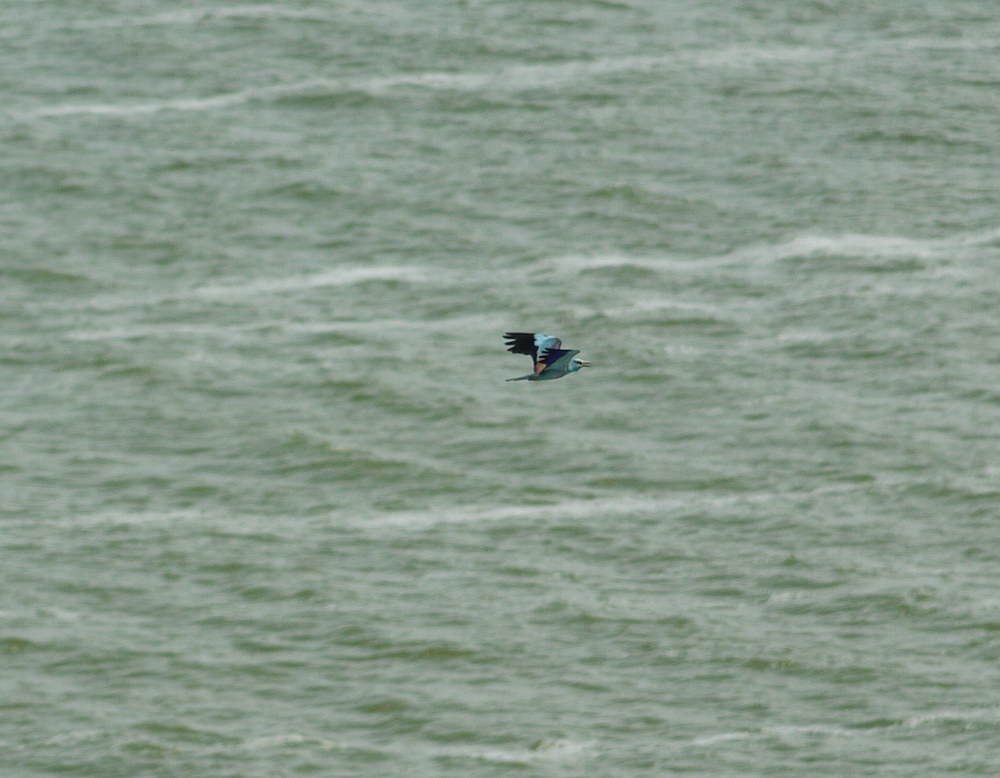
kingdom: Animalia
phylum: Chordata
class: Aves
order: Coraciiformes
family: Coraciidae
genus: Coracias
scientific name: Coracias garrulus
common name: European roller
